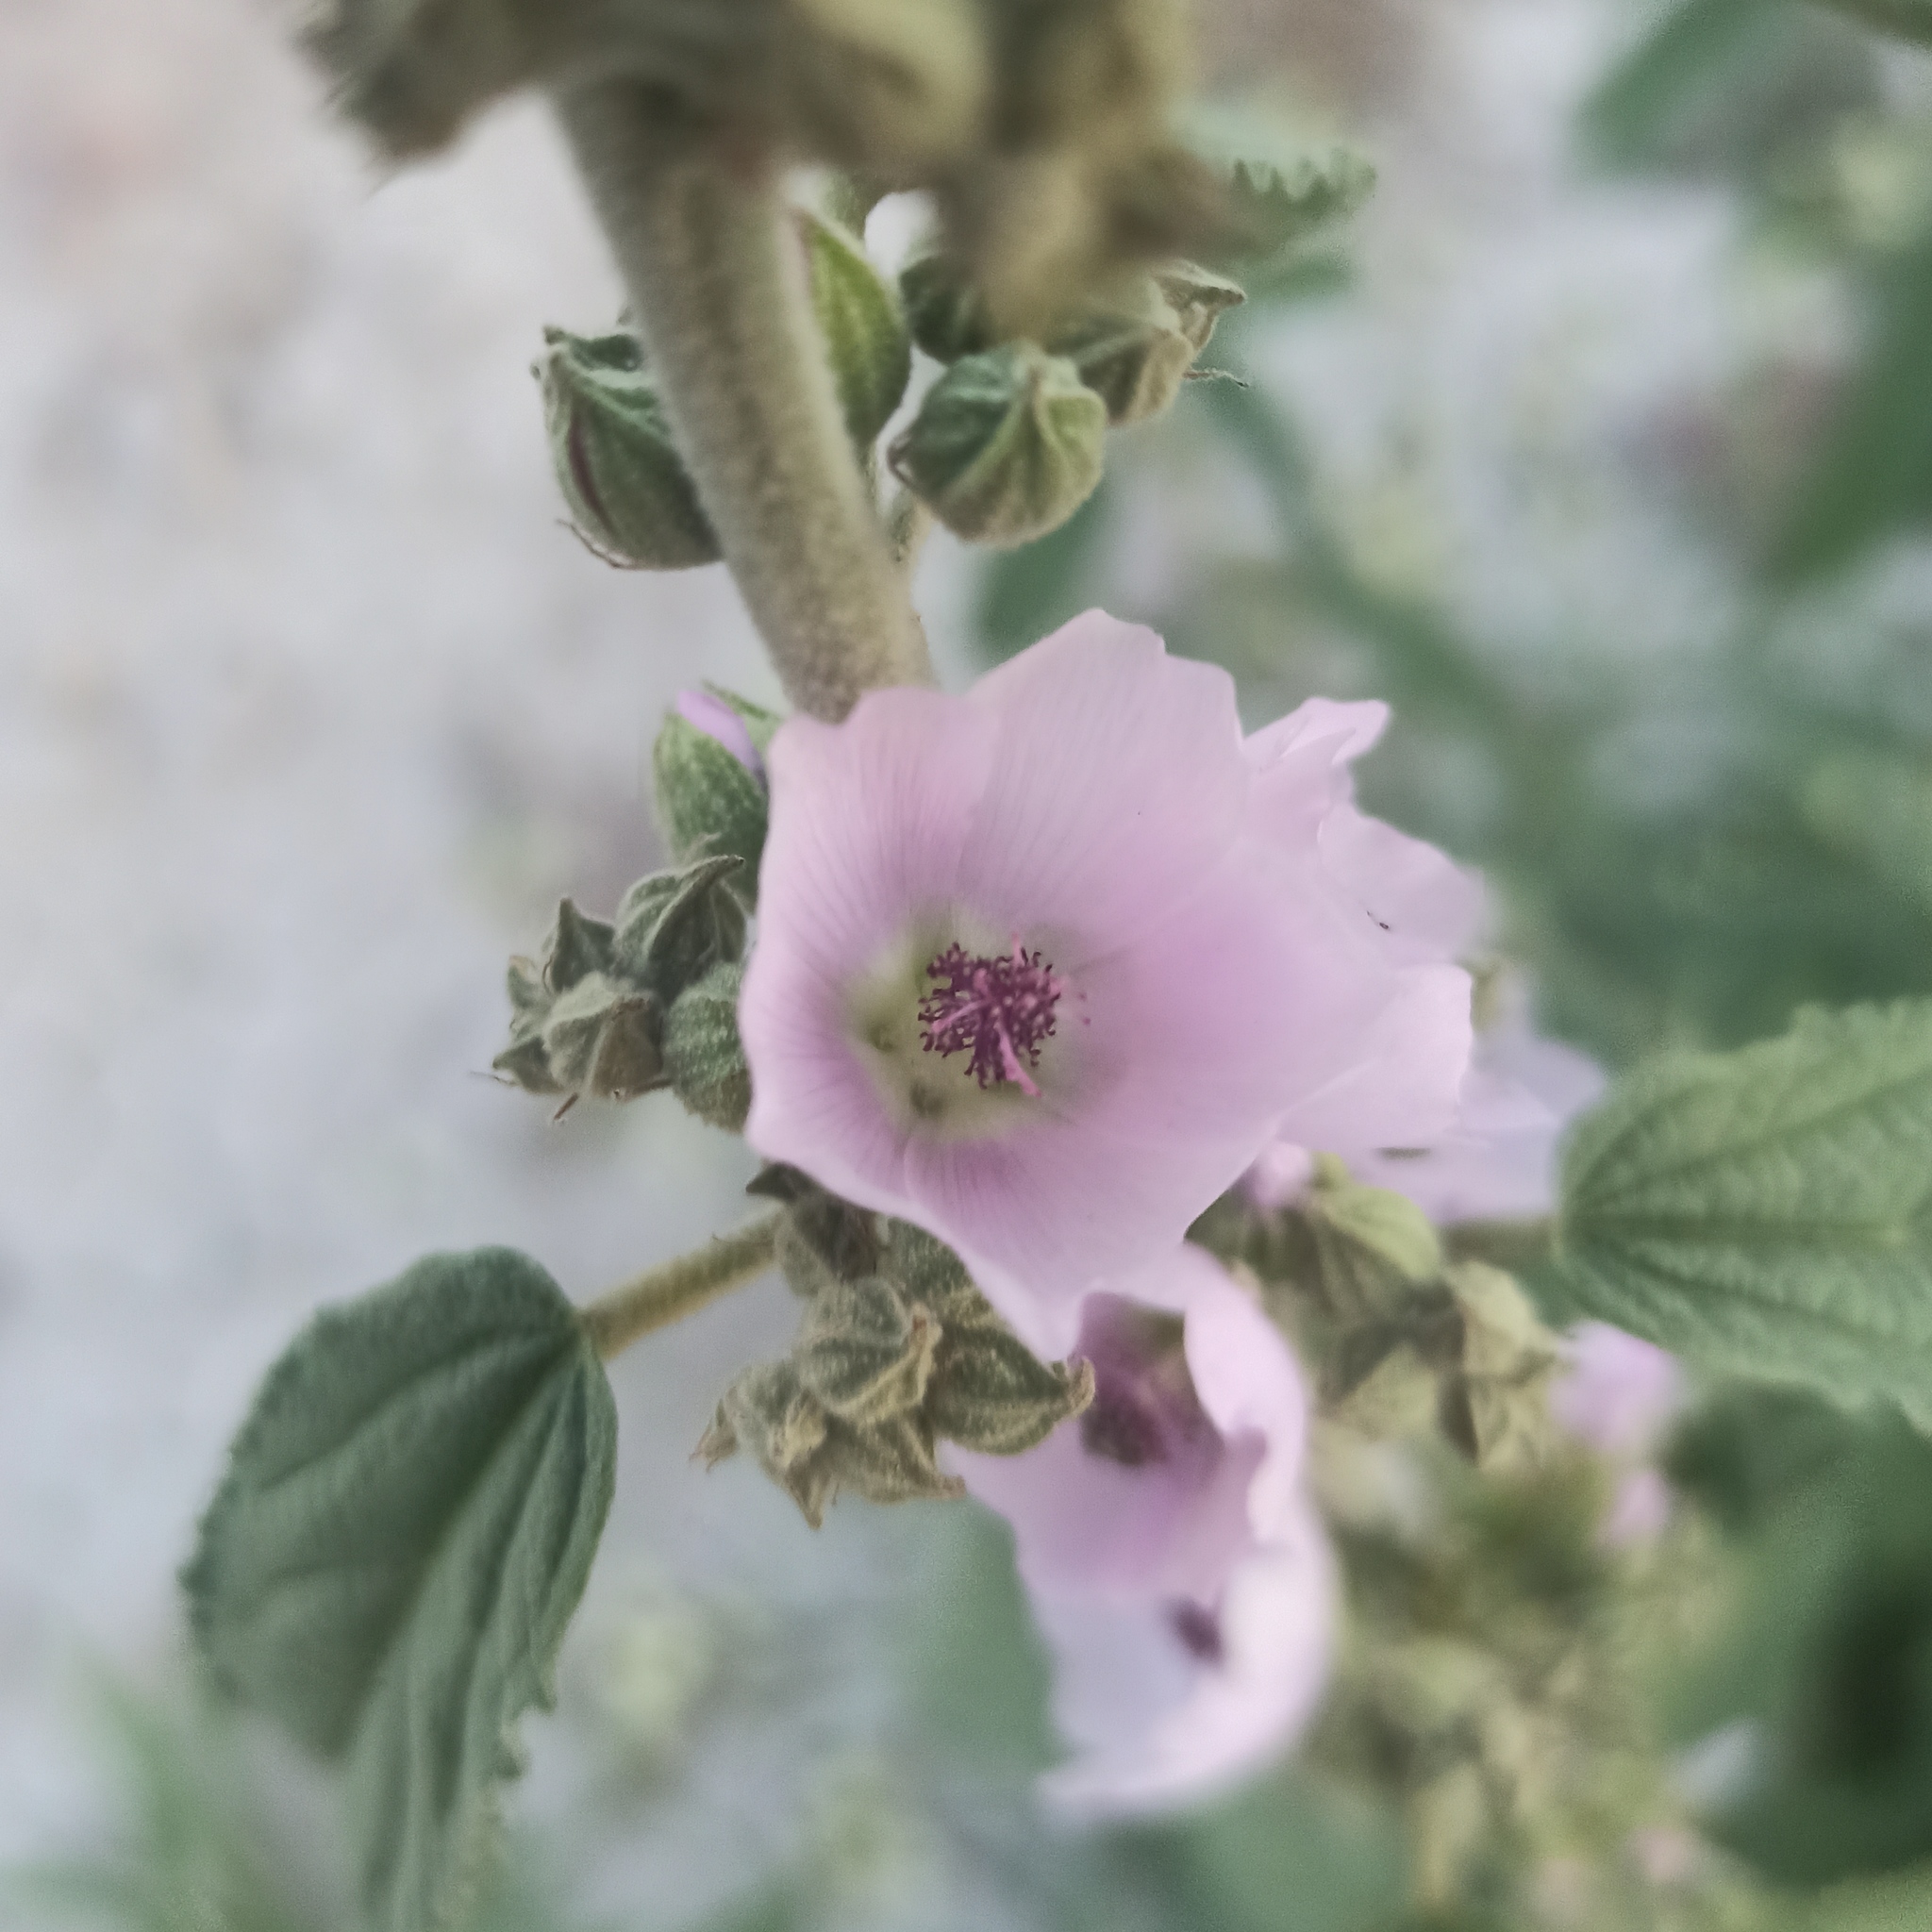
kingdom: Plantae
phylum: Tracheophyta
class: Magnoliopsida
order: Malvales
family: Malvaceae
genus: Sphaeralcea
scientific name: Sphaeralcea angustifolia
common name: Copper globe-mallow
